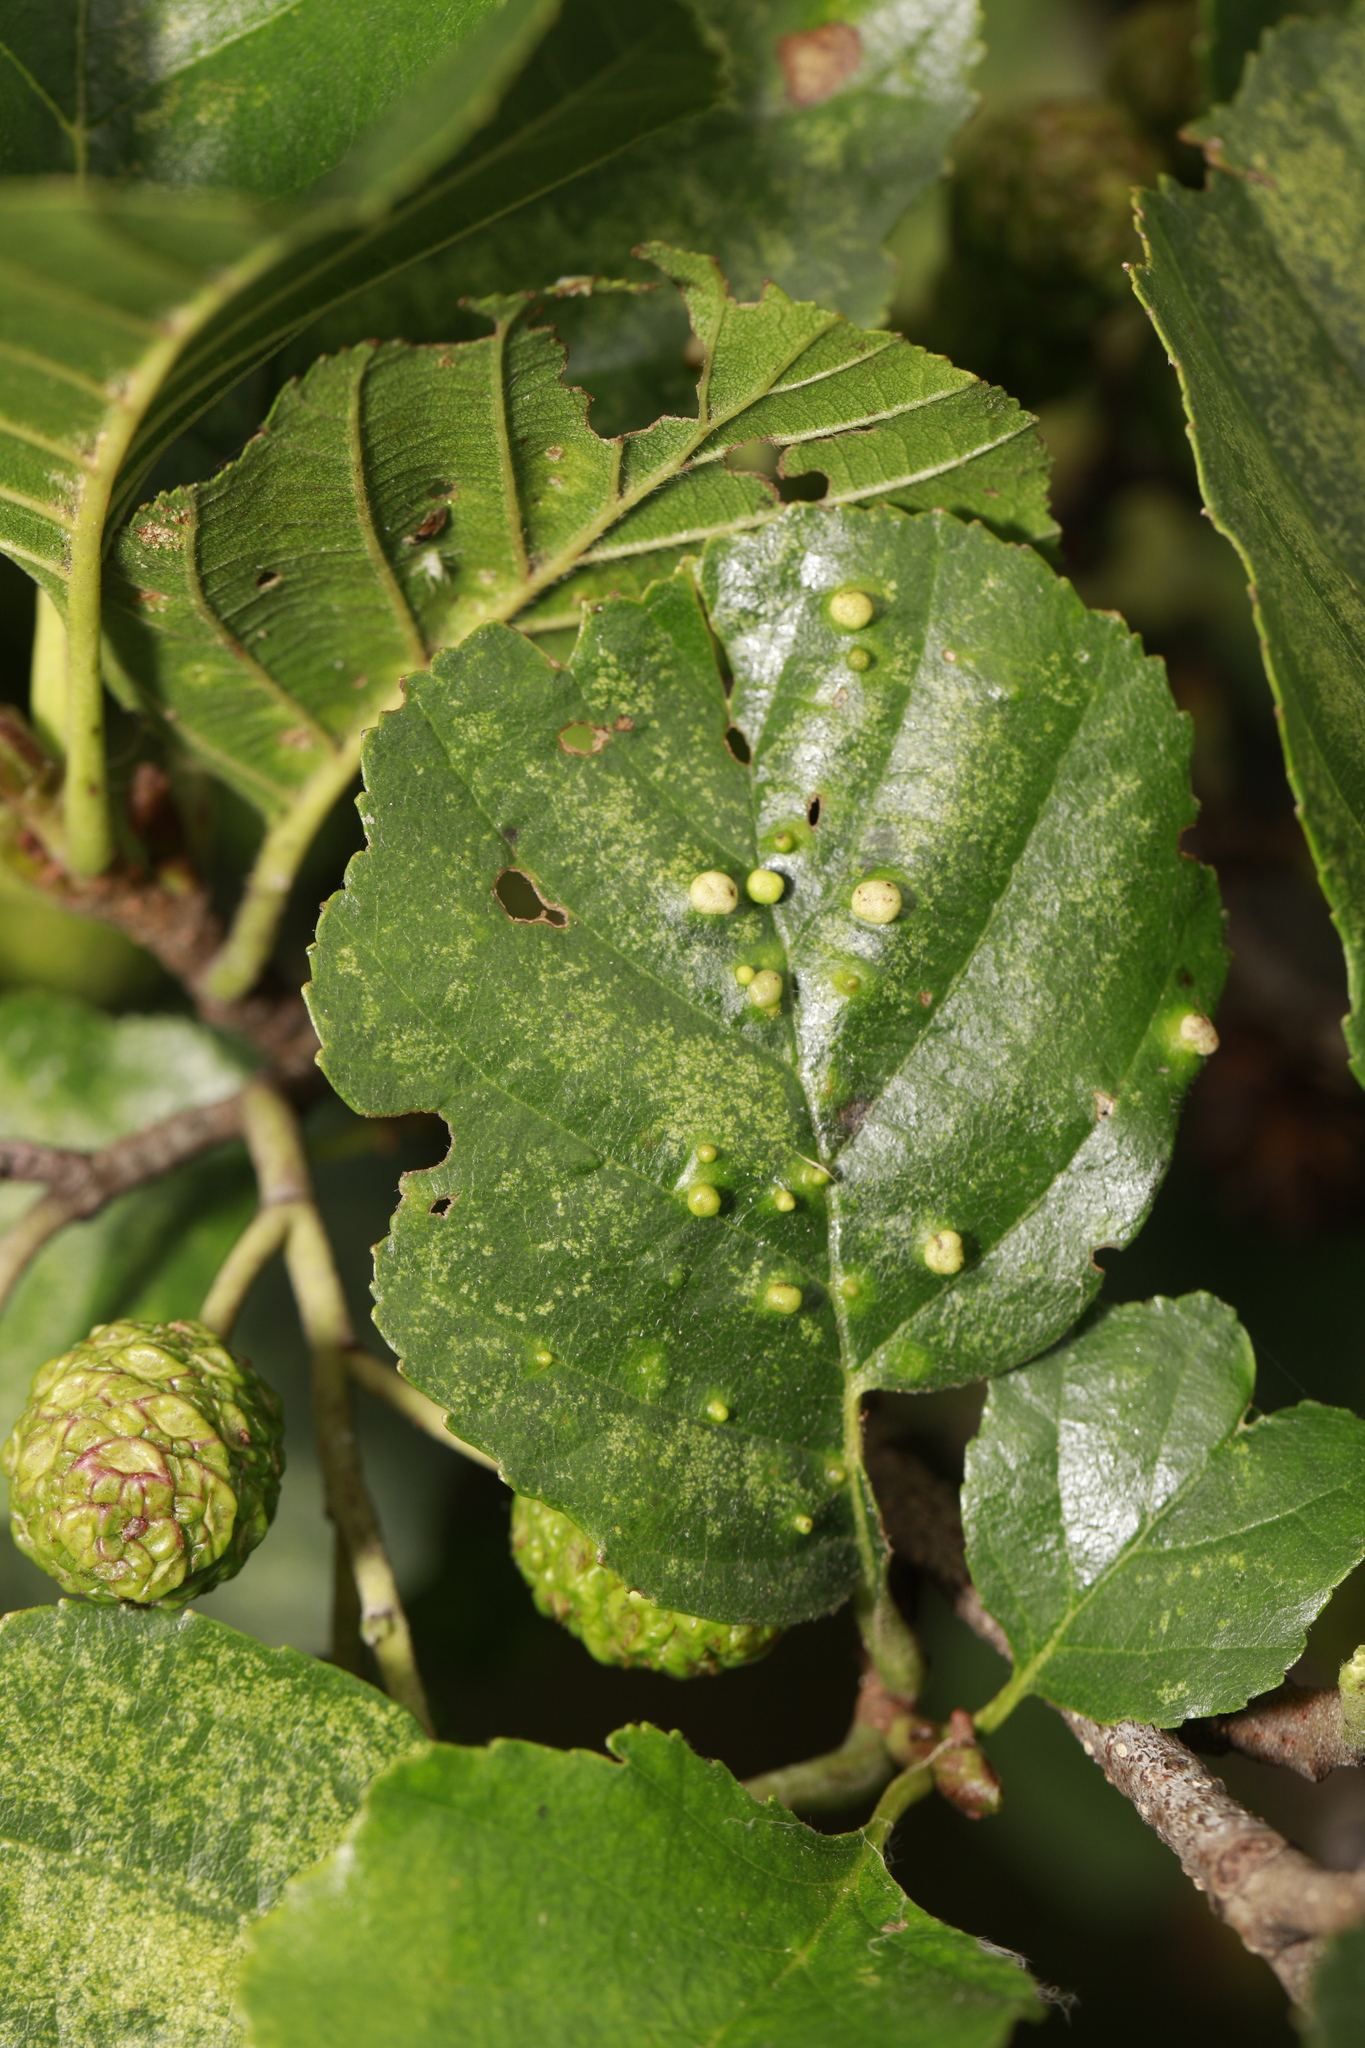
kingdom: Animalia
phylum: Arthropoda
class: Arachnida
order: Trombidiformes
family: Eriophyidae
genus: Eriophyes
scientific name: Eriophyes laevis
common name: Alder leaf gall mite
